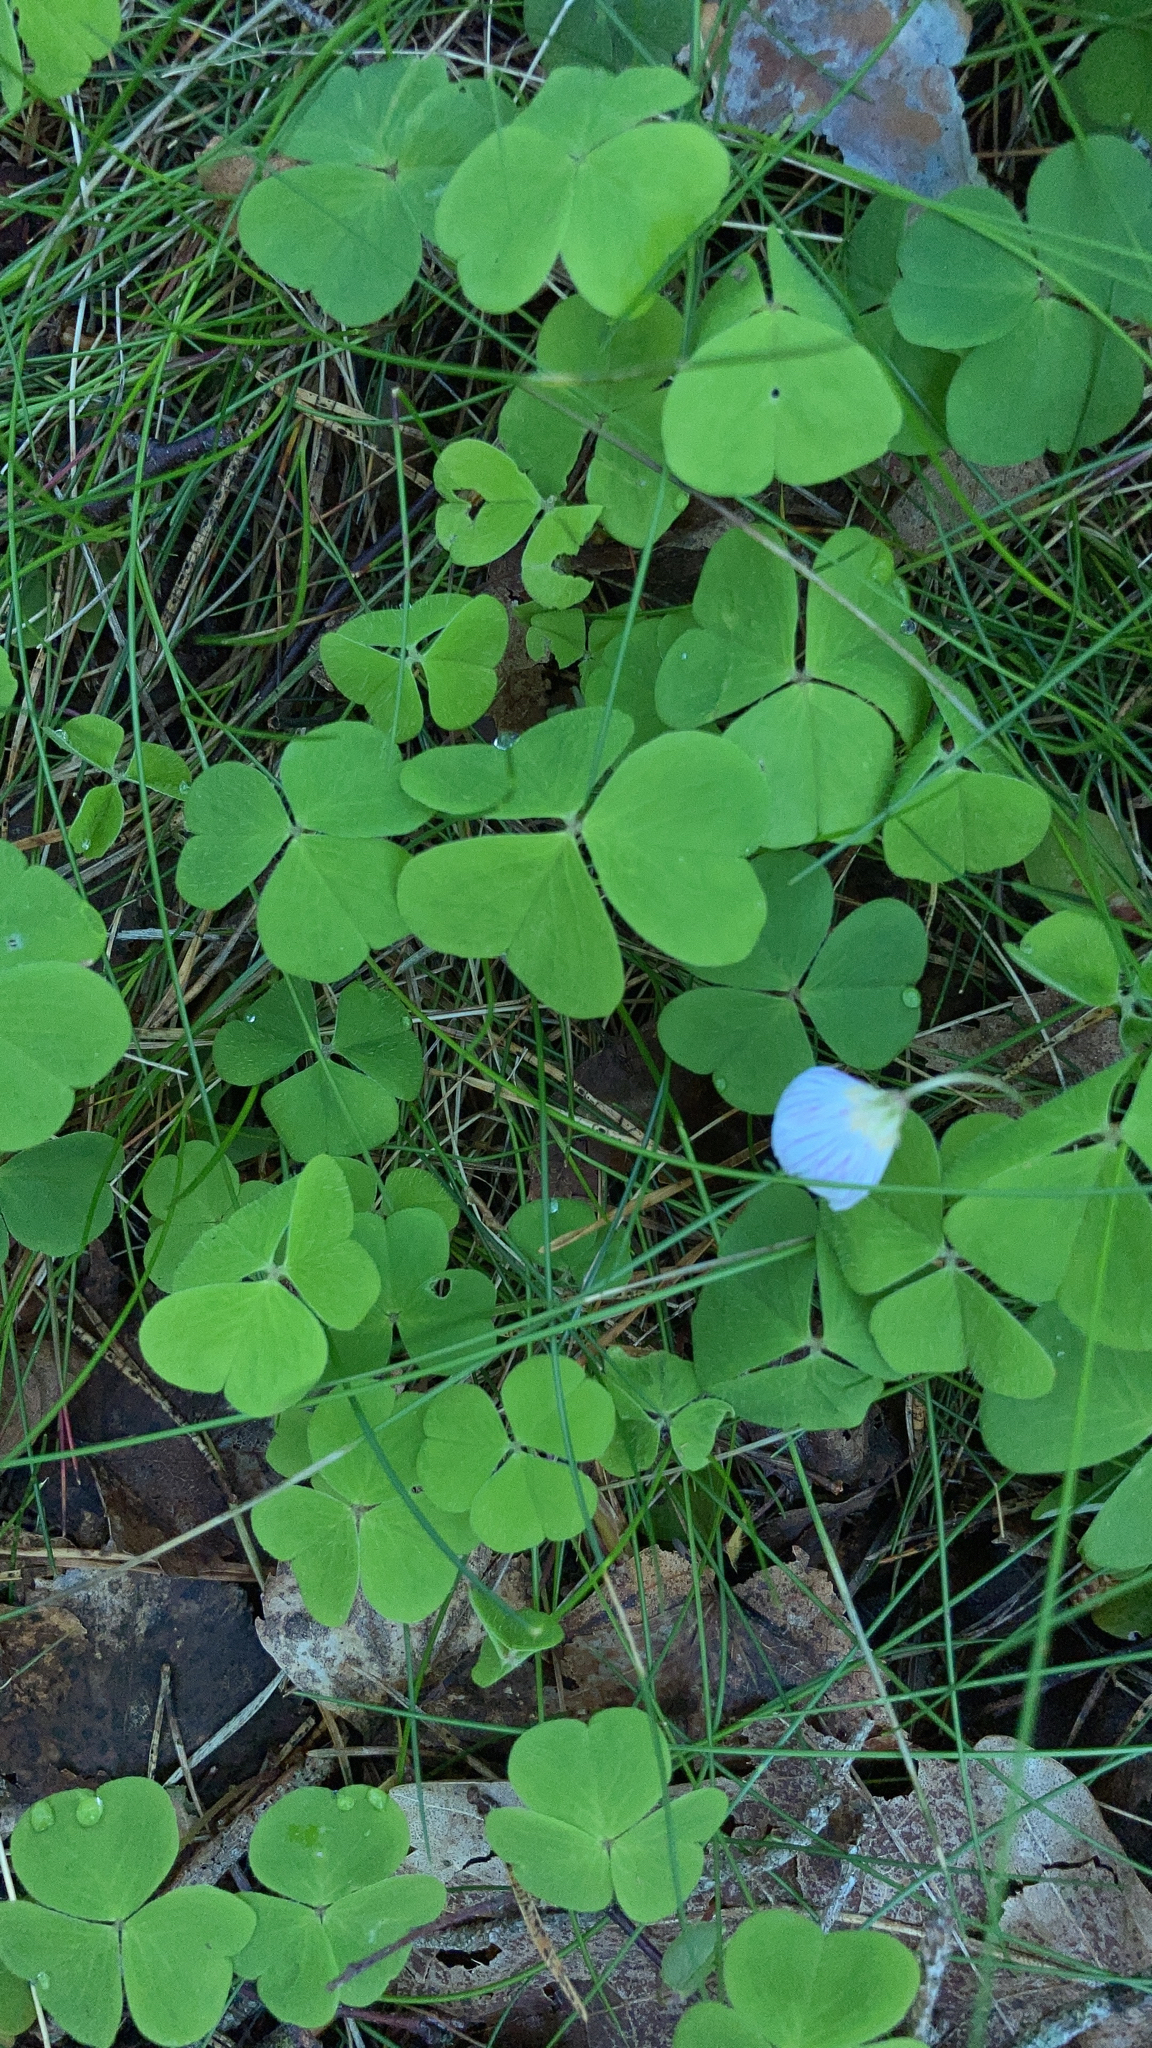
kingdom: Plantae
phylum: Tracheophyta
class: Magnoliopsida
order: Oxalidales
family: Oxalidaceae
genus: Oxalis
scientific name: Oxalis acetosella
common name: Wood-sorrel
